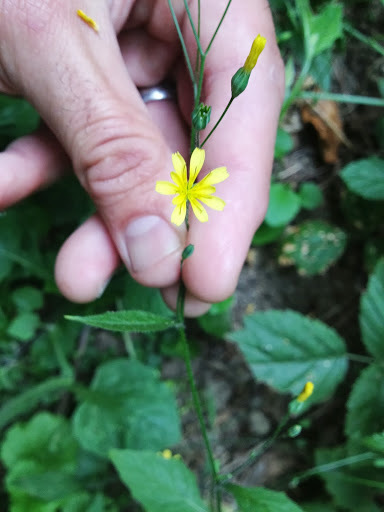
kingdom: Plantae
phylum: Tracheophyta
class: Magnoliopsida
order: Asterales
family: Asteraceae
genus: Lapsana
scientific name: Lapsana communis
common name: Nipplewort
